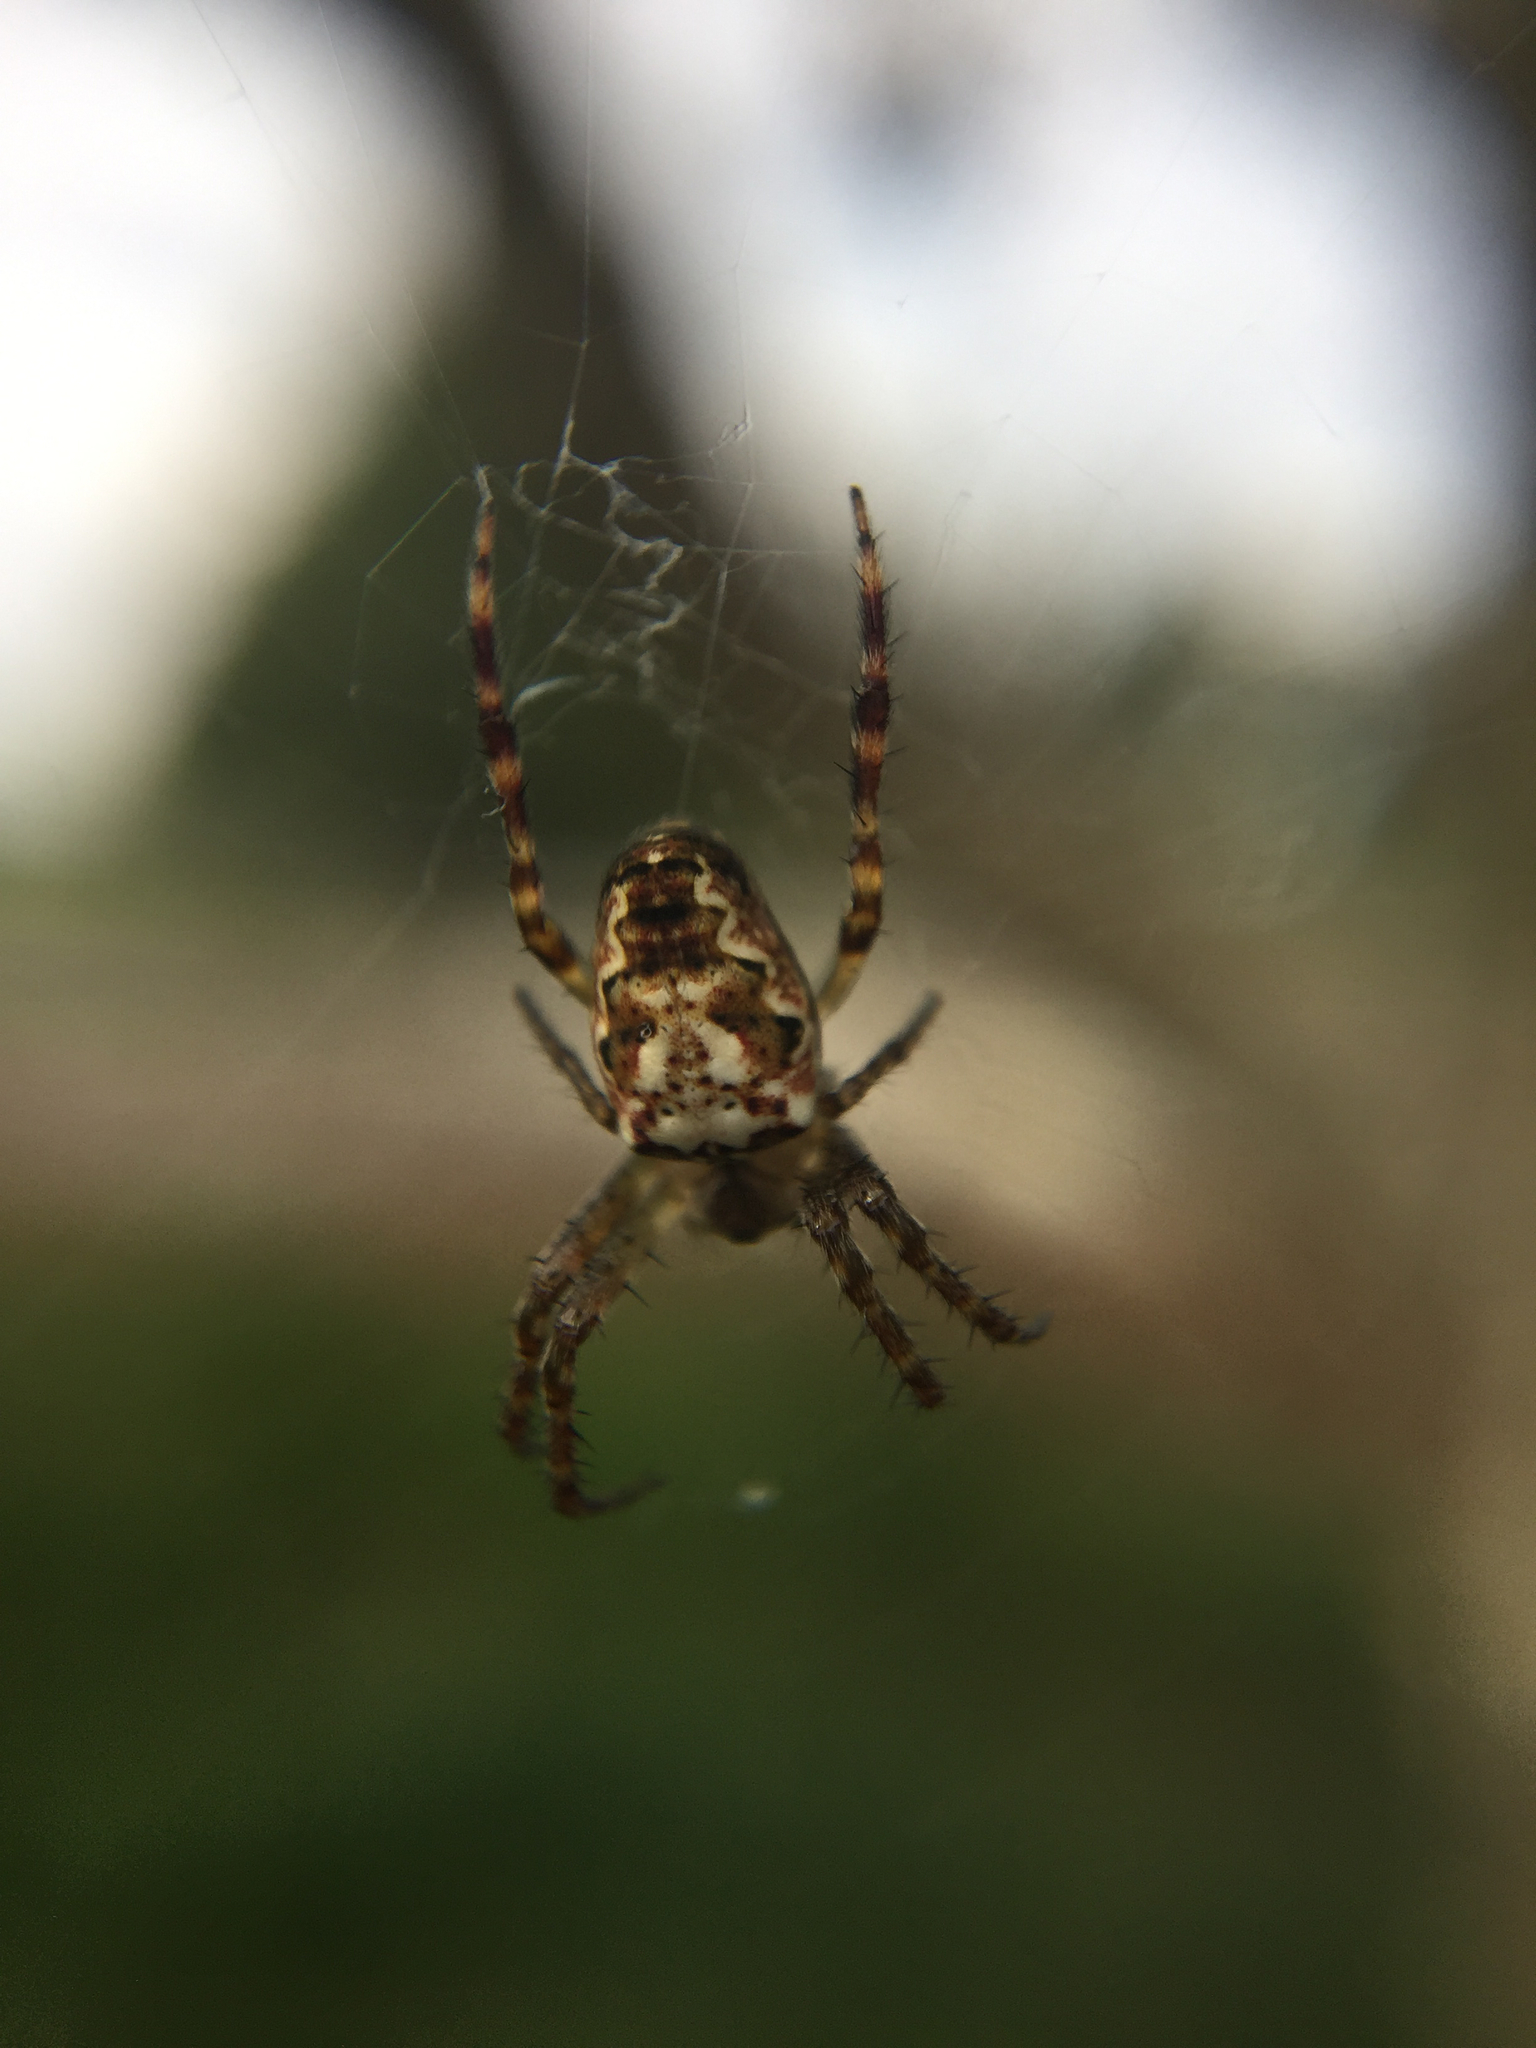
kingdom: Animalia
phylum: Arthropoda
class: Arachnida
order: Araneae
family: Araneidae
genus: Plebs
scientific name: Plebs eburnus
